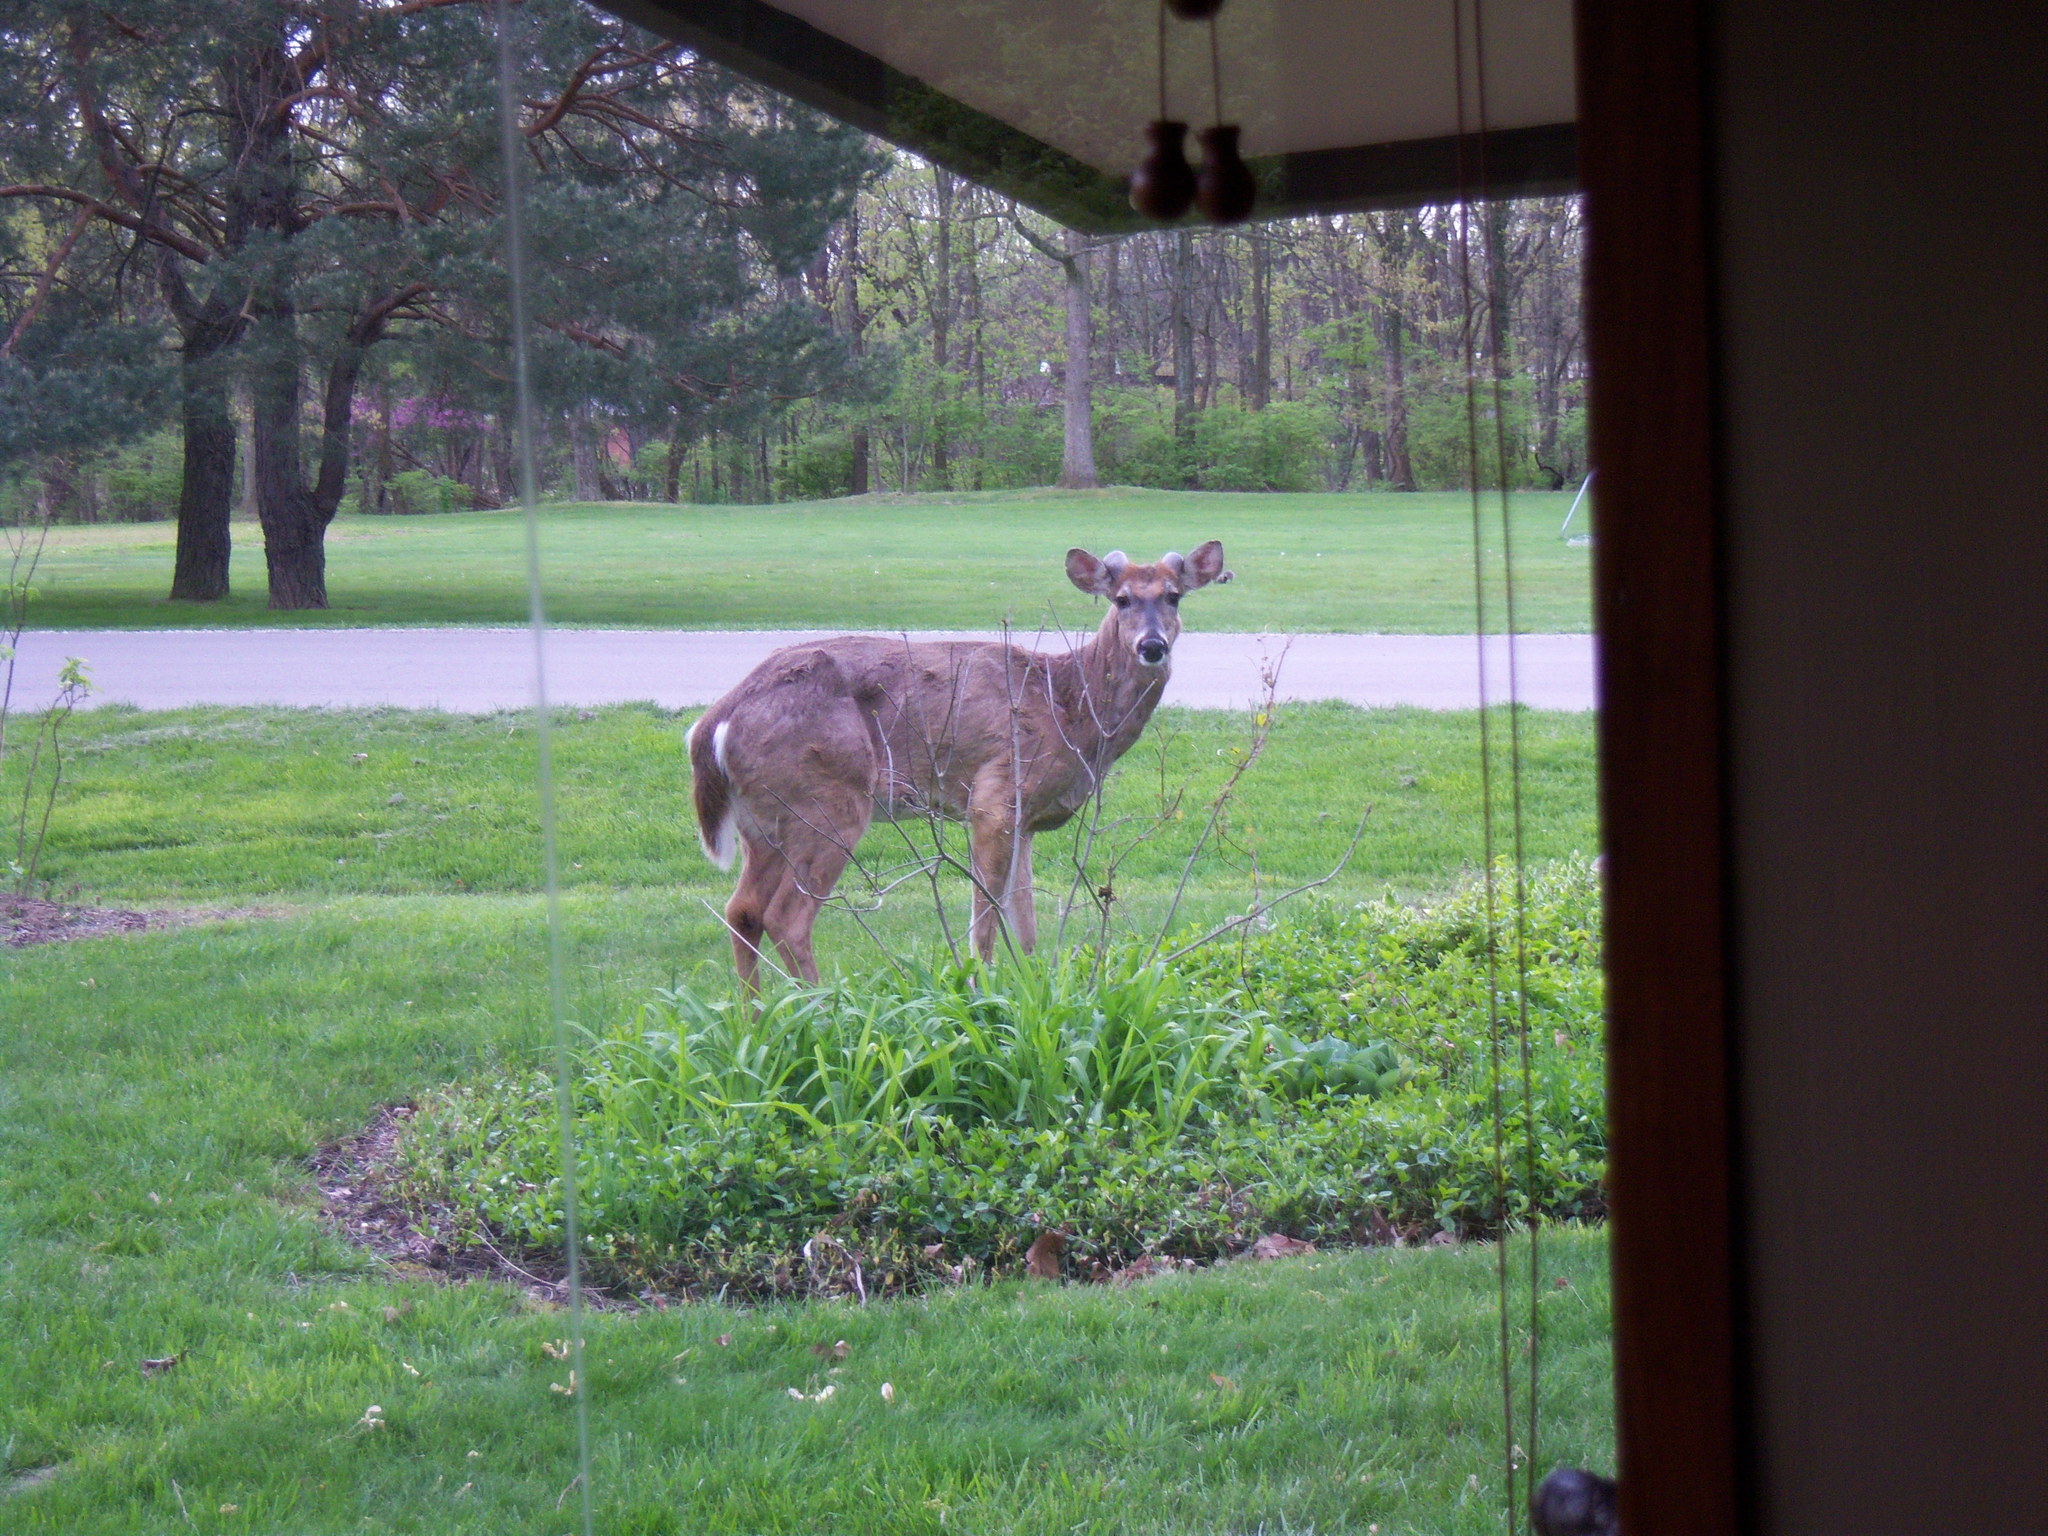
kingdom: Animalia
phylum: Chordata
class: Mammalia
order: Artiodactyla
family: Cervidae
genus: Odocoileus
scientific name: Odocoileus virginianus
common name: White-tailed deer
